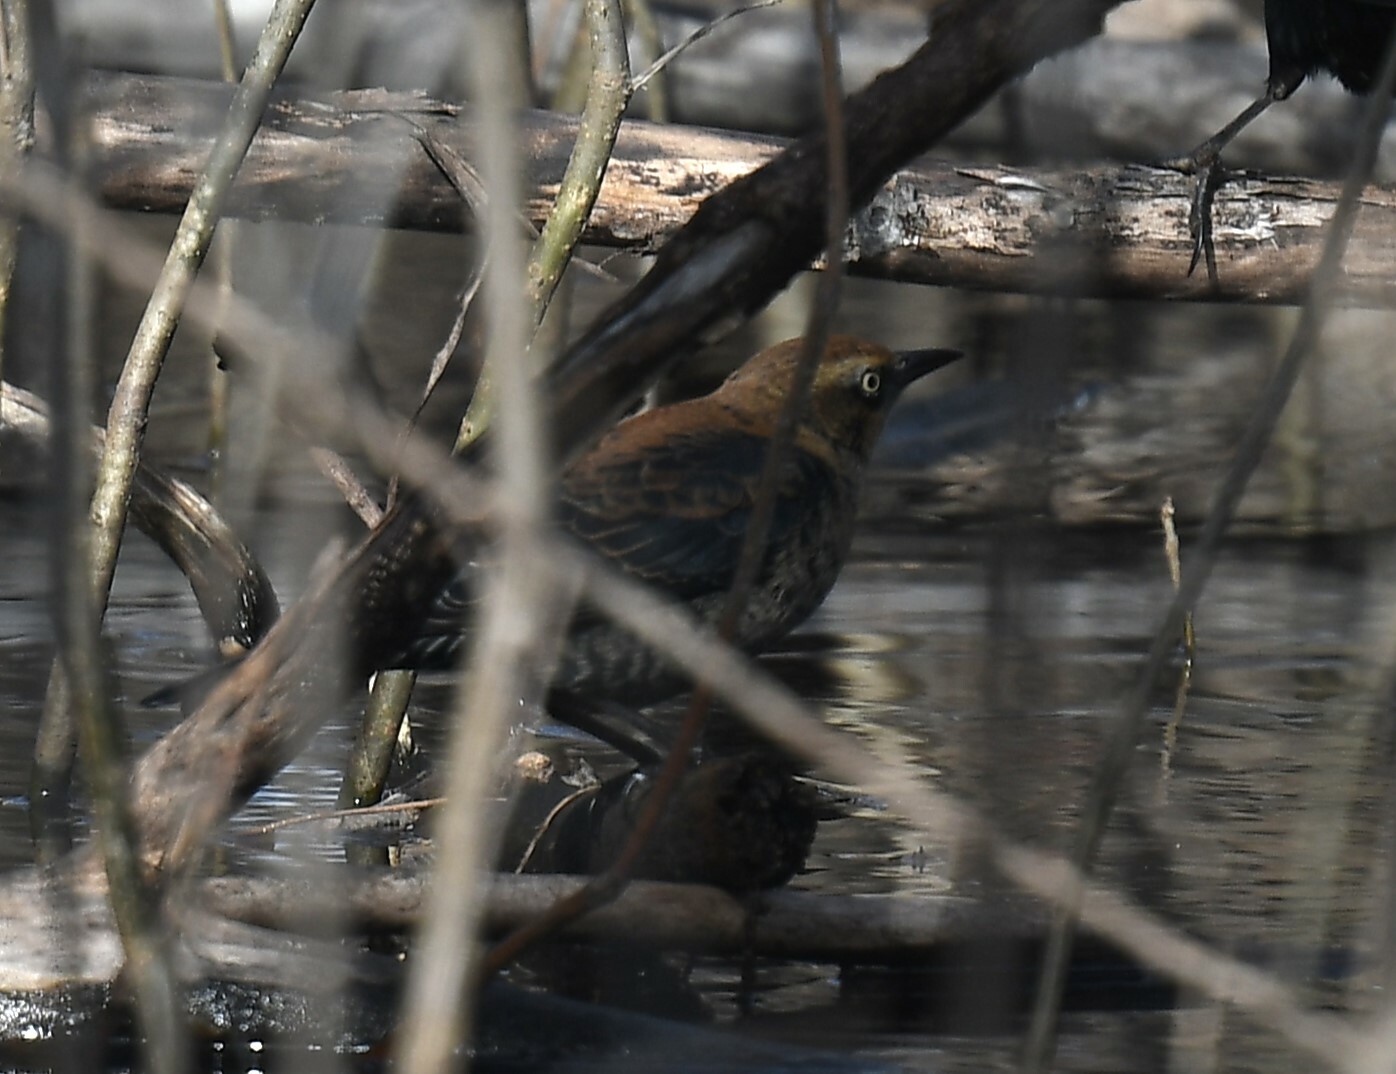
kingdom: Animalia
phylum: Chordata
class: Aves
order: Passeriformes
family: Icteridae
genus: Euphagus
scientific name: Euphagus carolinus
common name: Rusty blackbird
